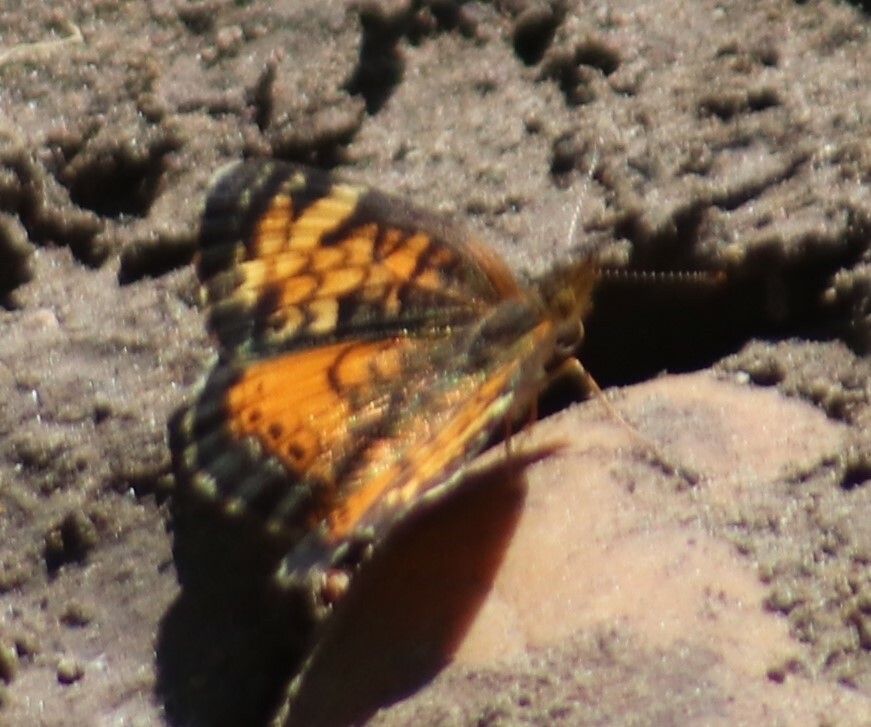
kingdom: Animalia
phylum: Arthropoda
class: Insecta
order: Lepidoptera
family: Nymphalidae
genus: Phyciodes
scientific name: Phyciodes tharos
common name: Pearl crescent
